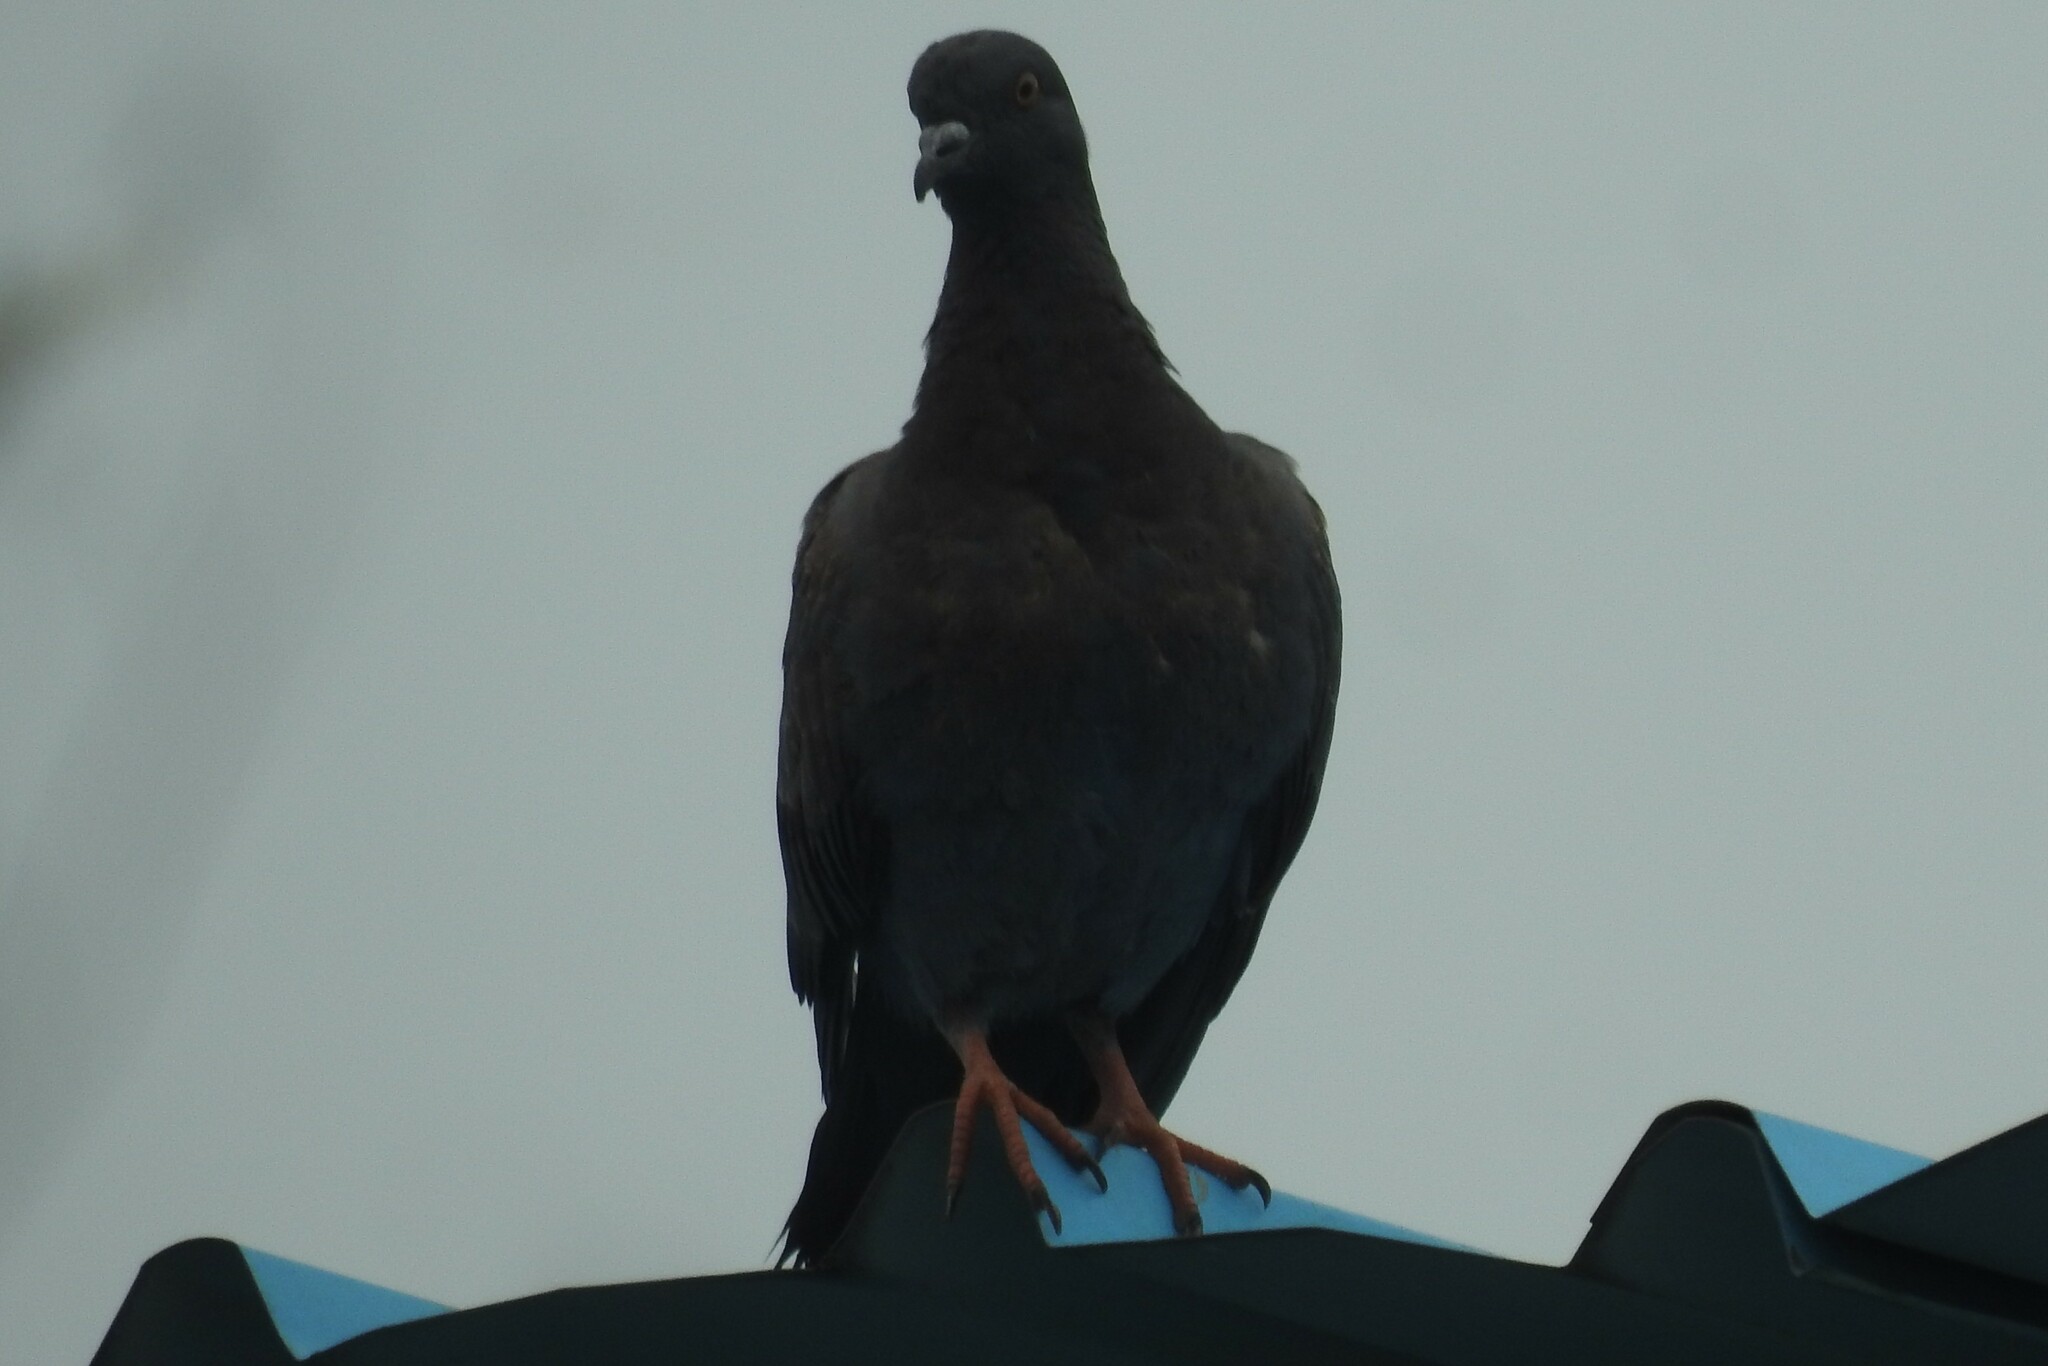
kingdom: Animalia
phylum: Chordata
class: Aves
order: Columbiformes
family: Columbidae
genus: Columba
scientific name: Columba livia
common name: Rock pigeon
